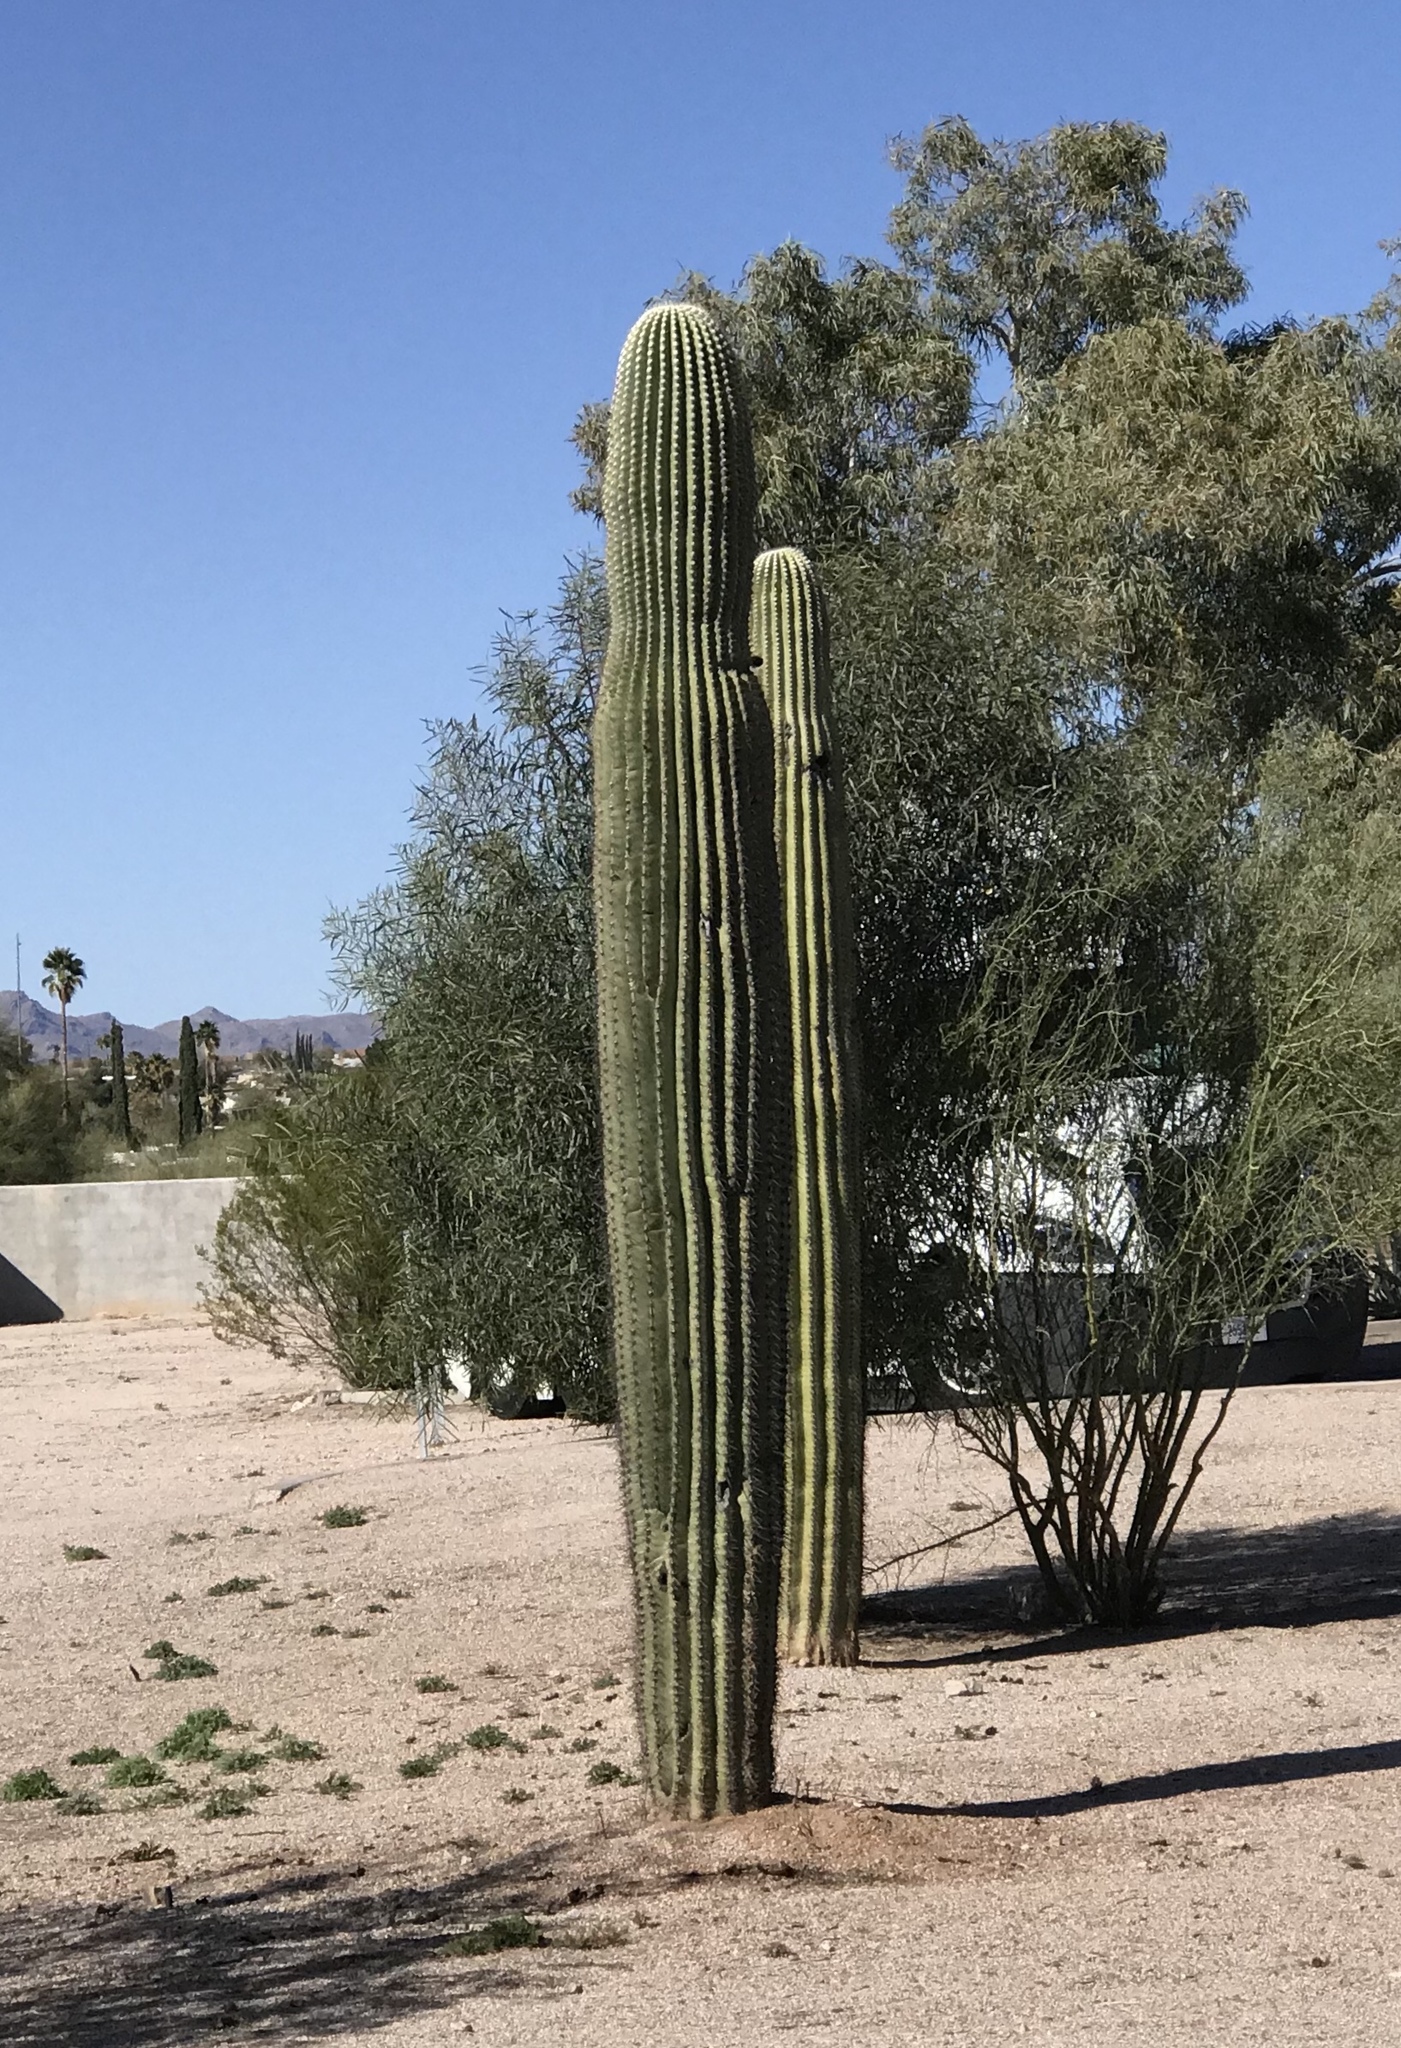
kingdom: Plantae
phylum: Tracheophyta
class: Magnoliopsida
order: Caryophyllales
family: Cactaceae
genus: Carnegiea
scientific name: Carnegiea gigantea
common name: Saguaro
